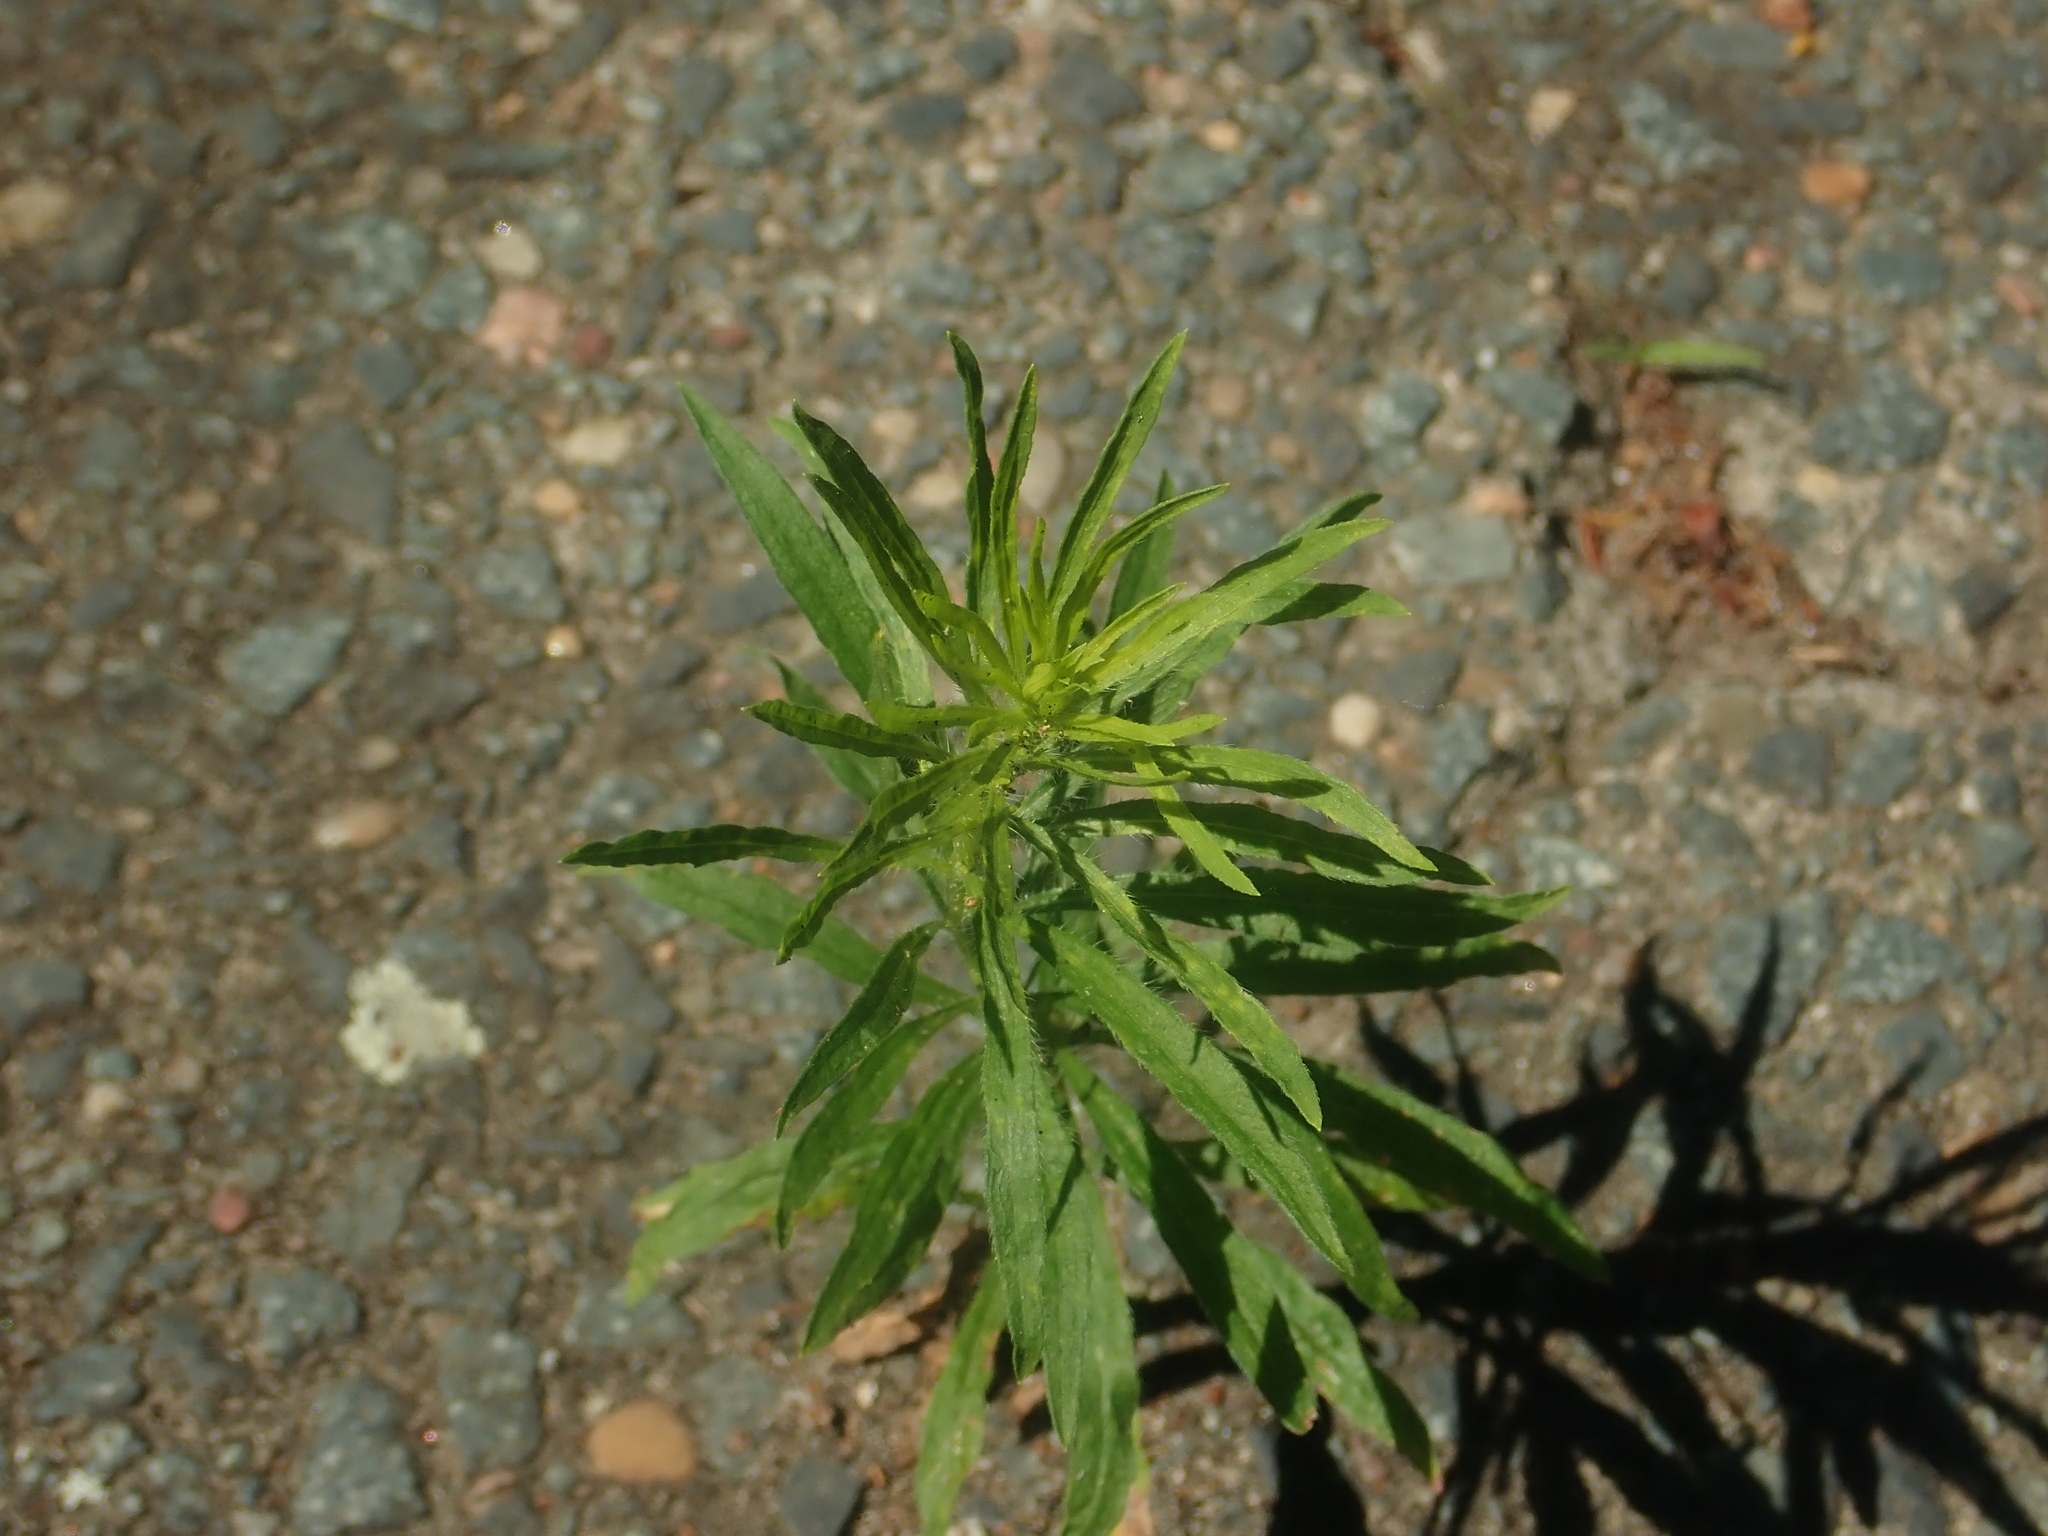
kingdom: Plantae
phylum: Tracheophyta
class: Magnoliopsida
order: Asterales
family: Asteraceae
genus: Erigeron
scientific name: Erigeron canadensis
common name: Canadian fleabane
